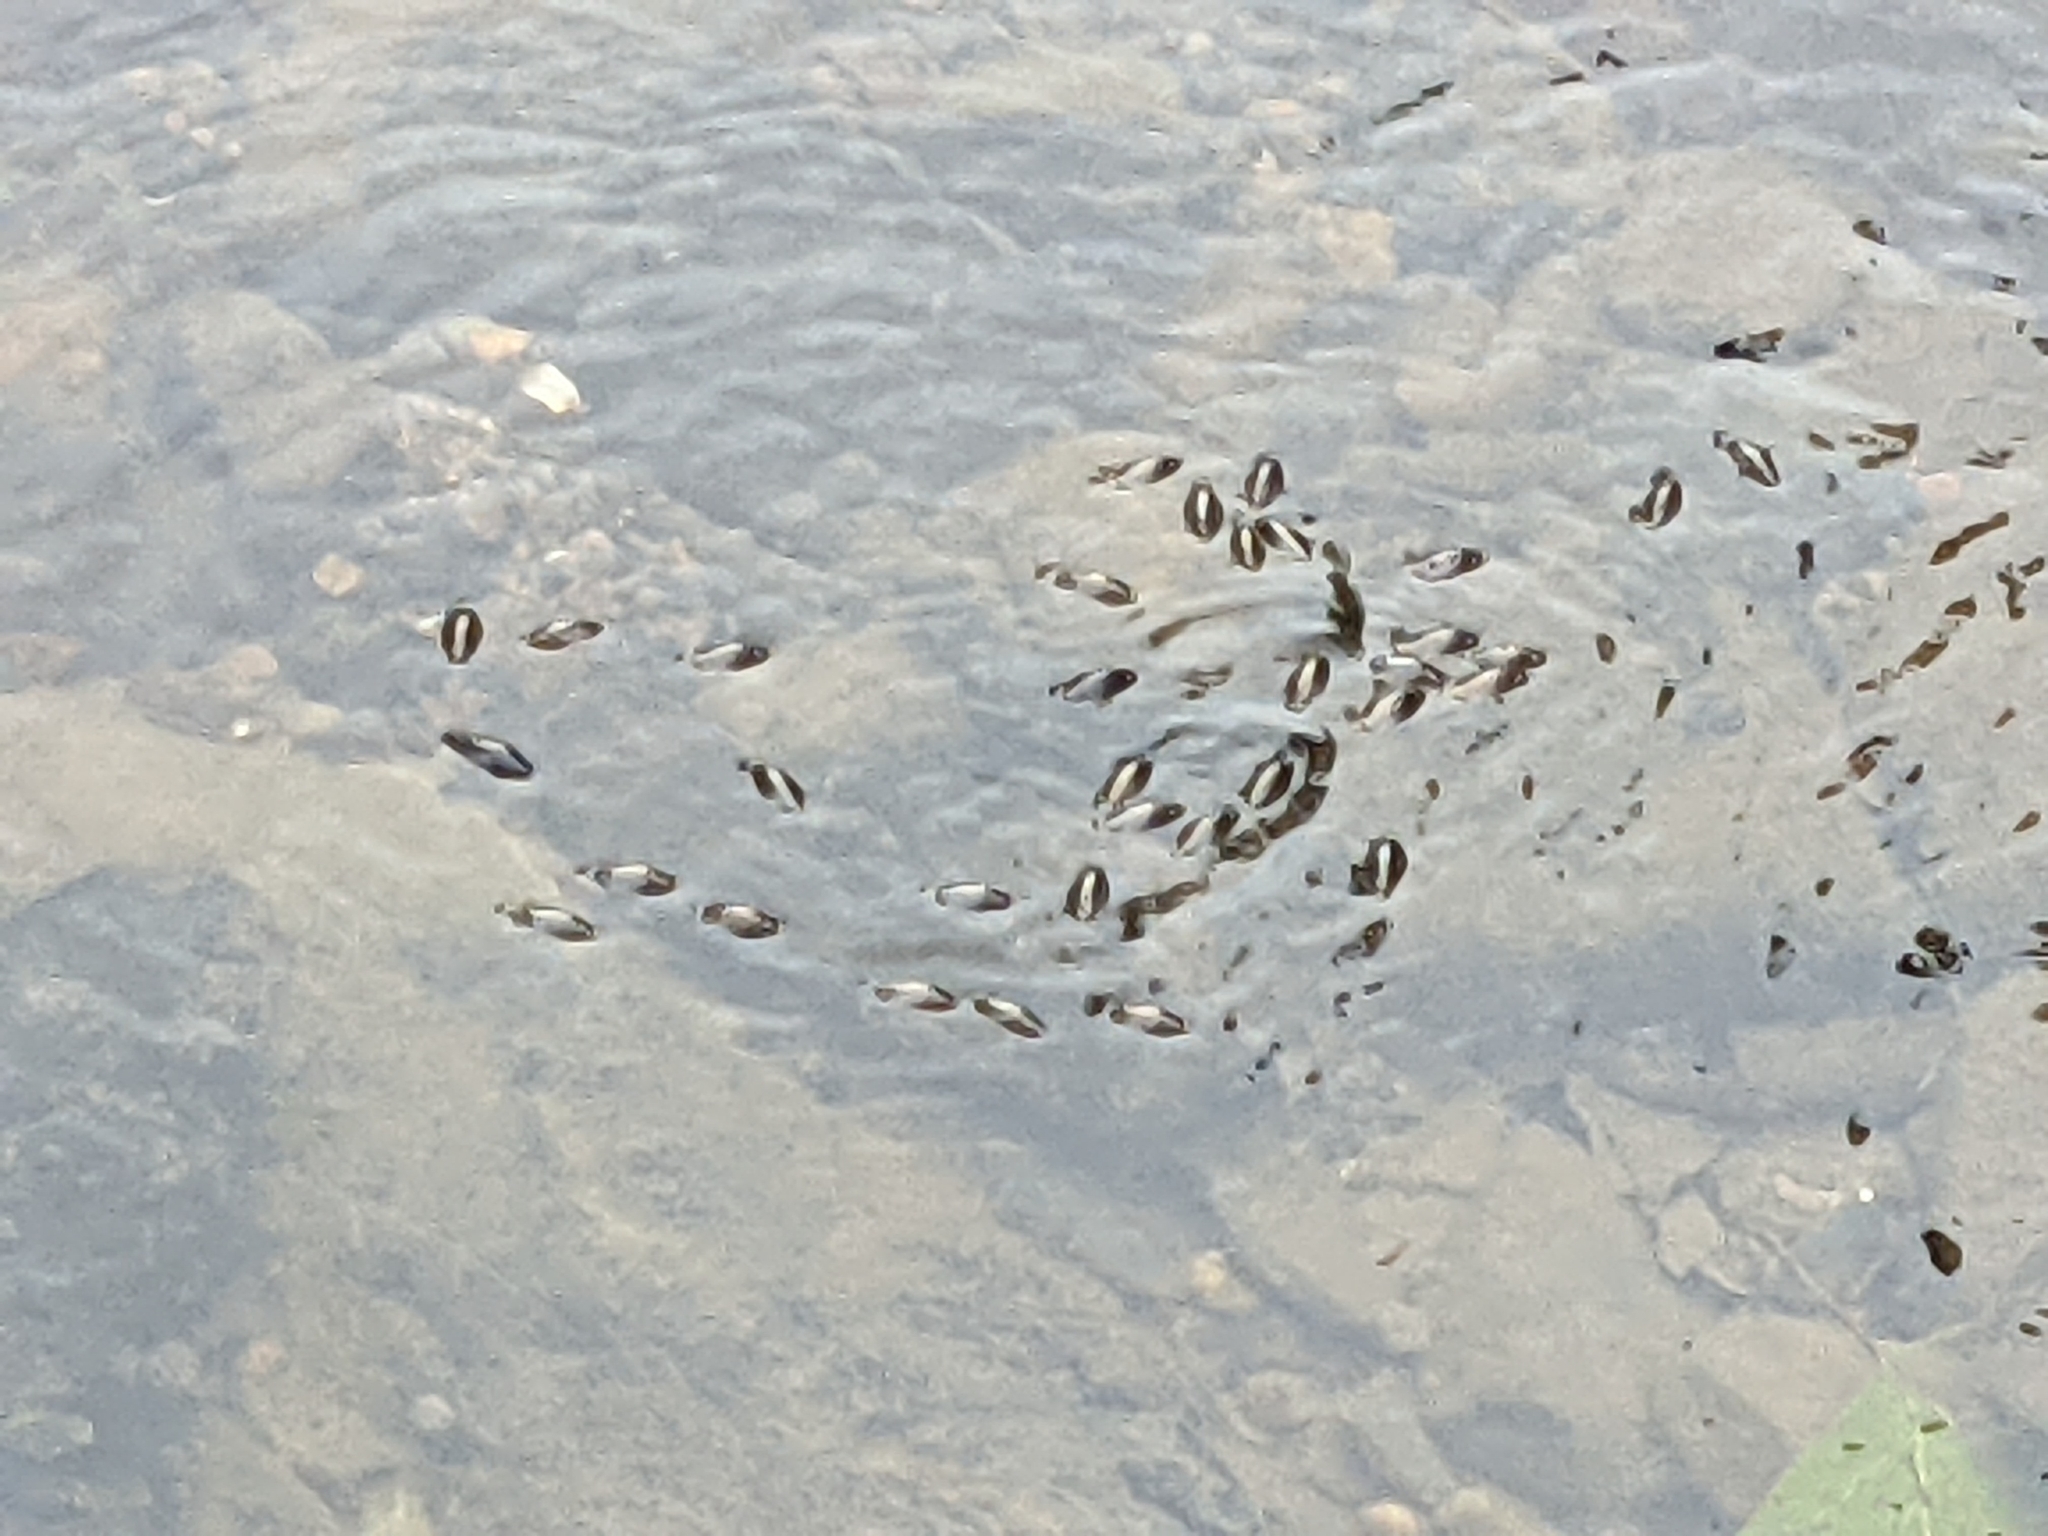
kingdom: Animalia
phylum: Arthropoda
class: Insecta
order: Coleoptera
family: Gyrinidae
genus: Dineutus
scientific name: Dineutus
